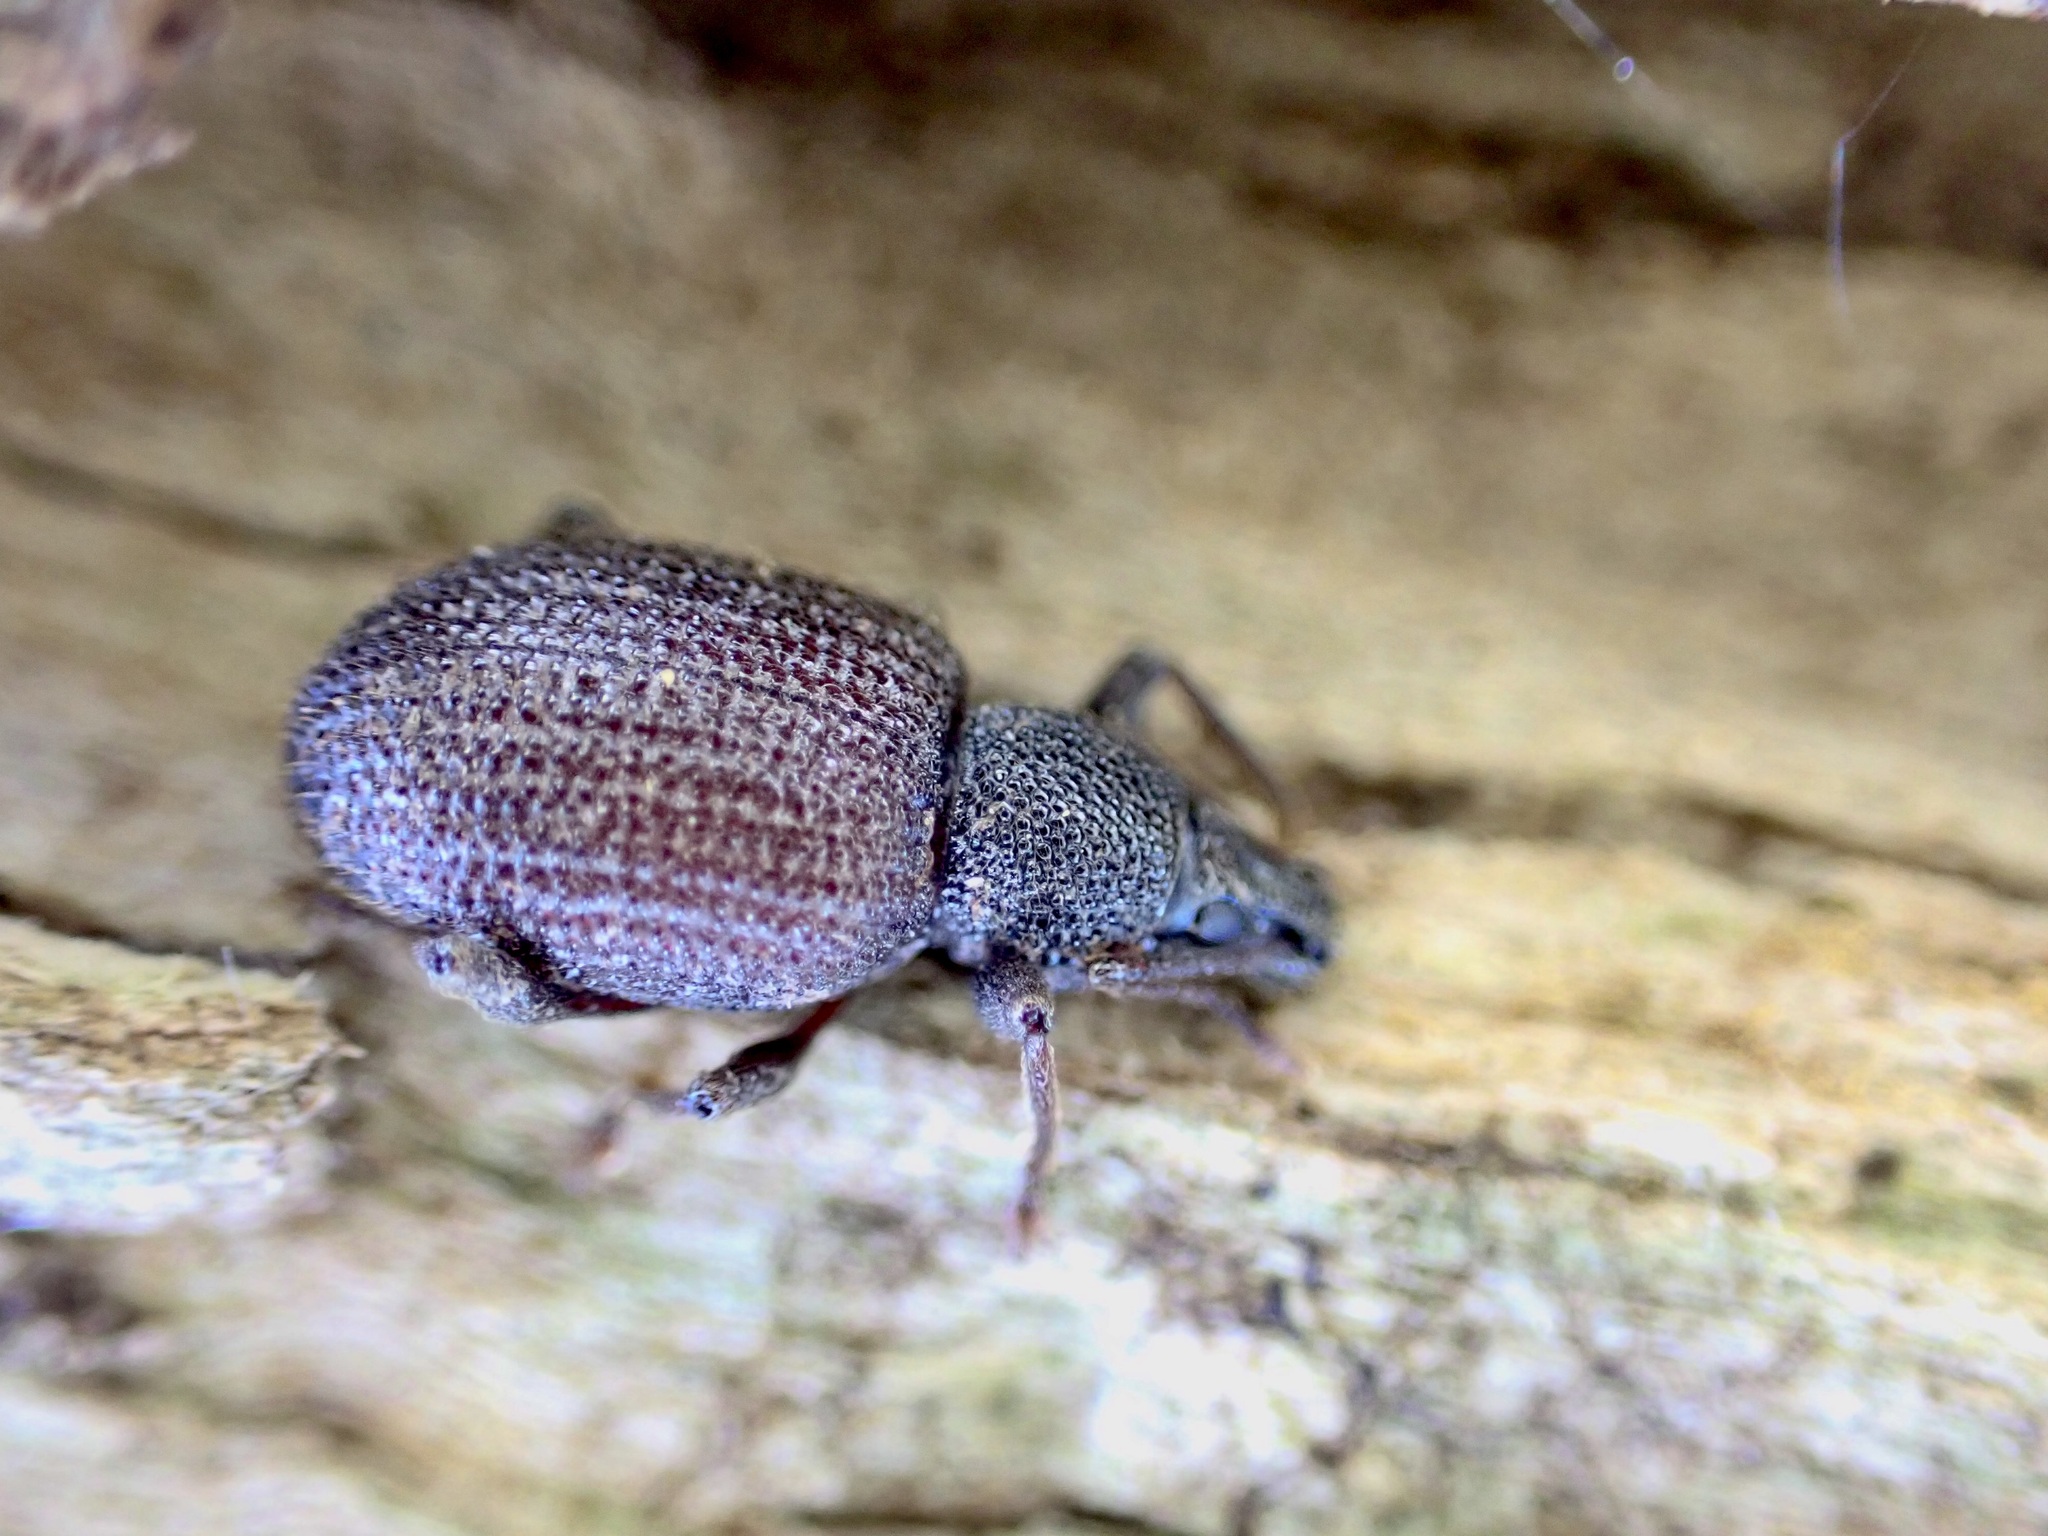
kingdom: Animalia
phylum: Arthropoda
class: Insecta
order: Coleoptera
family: Curculionidae
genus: Otiorhynchus
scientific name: Otiorhynchus rugosostriatus
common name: Weevil
